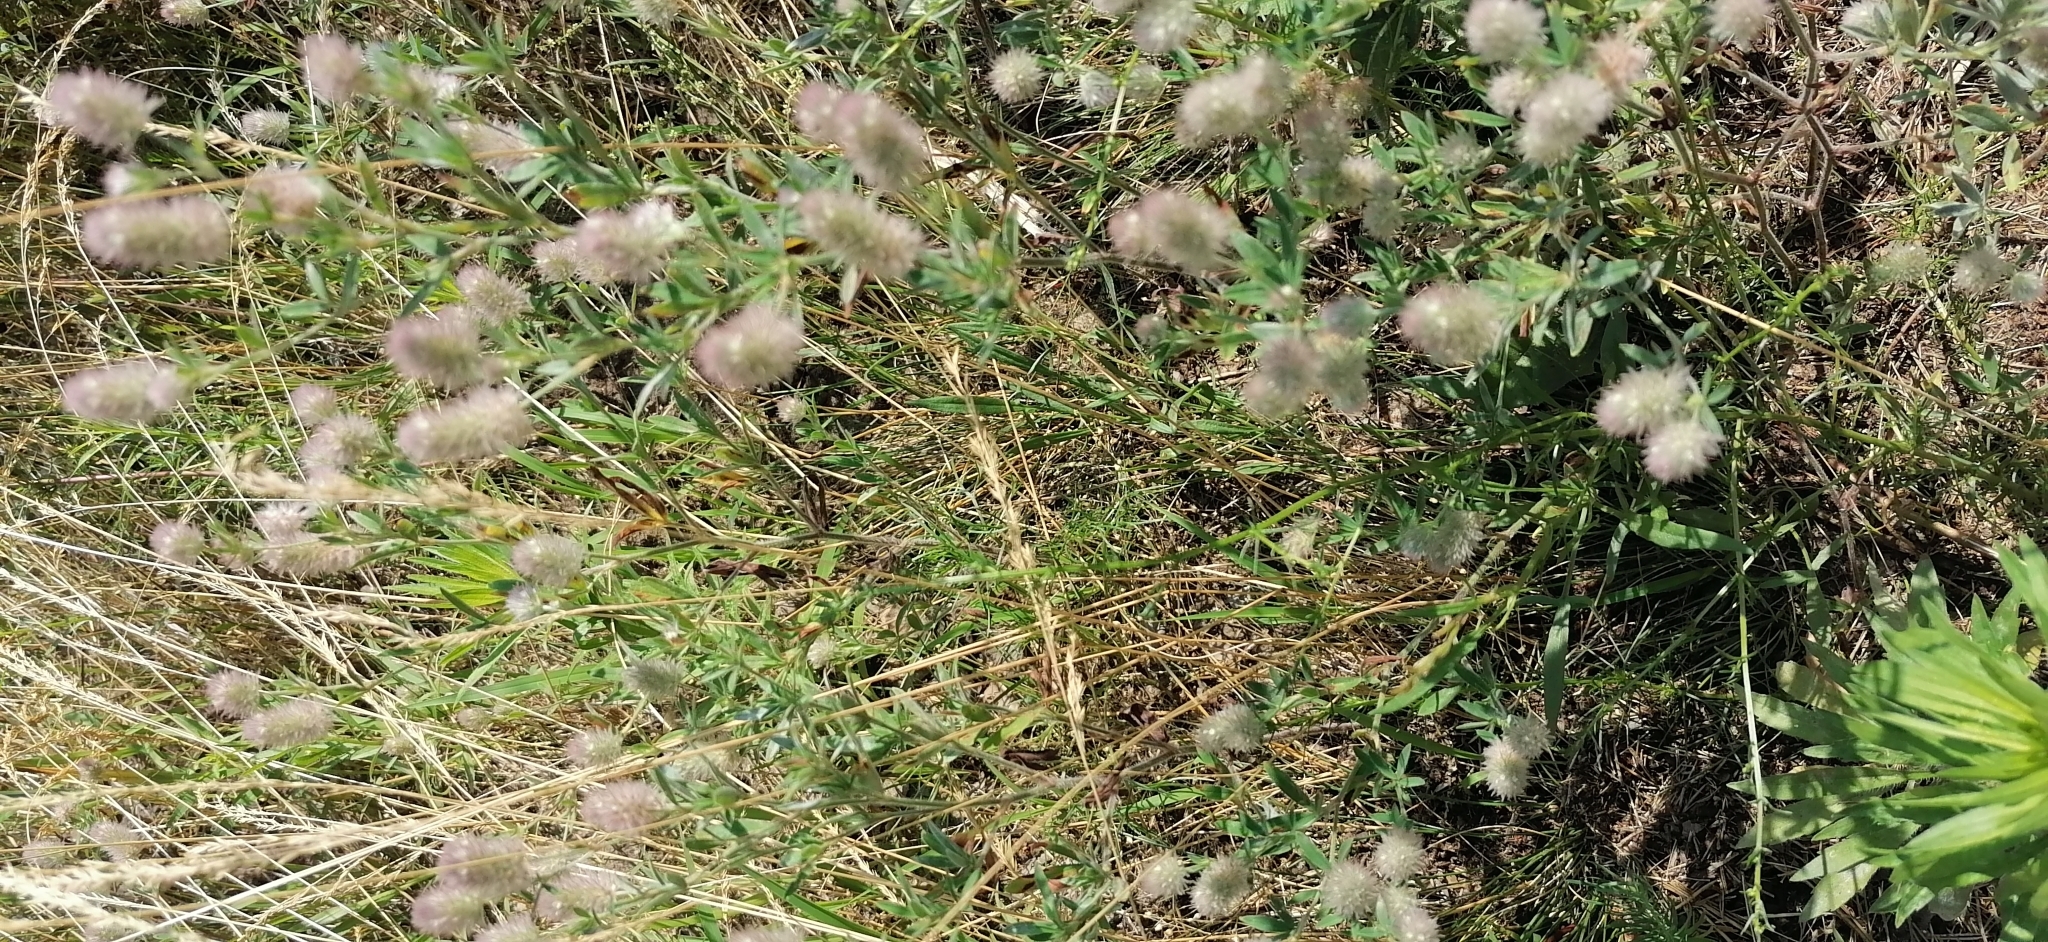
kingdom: Plantae
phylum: Tracheophyta
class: Magnoliopsida
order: Fabales
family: Fabaceae
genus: Trifolium
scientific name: Trifolium arvense
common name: Hare's-foot clover
